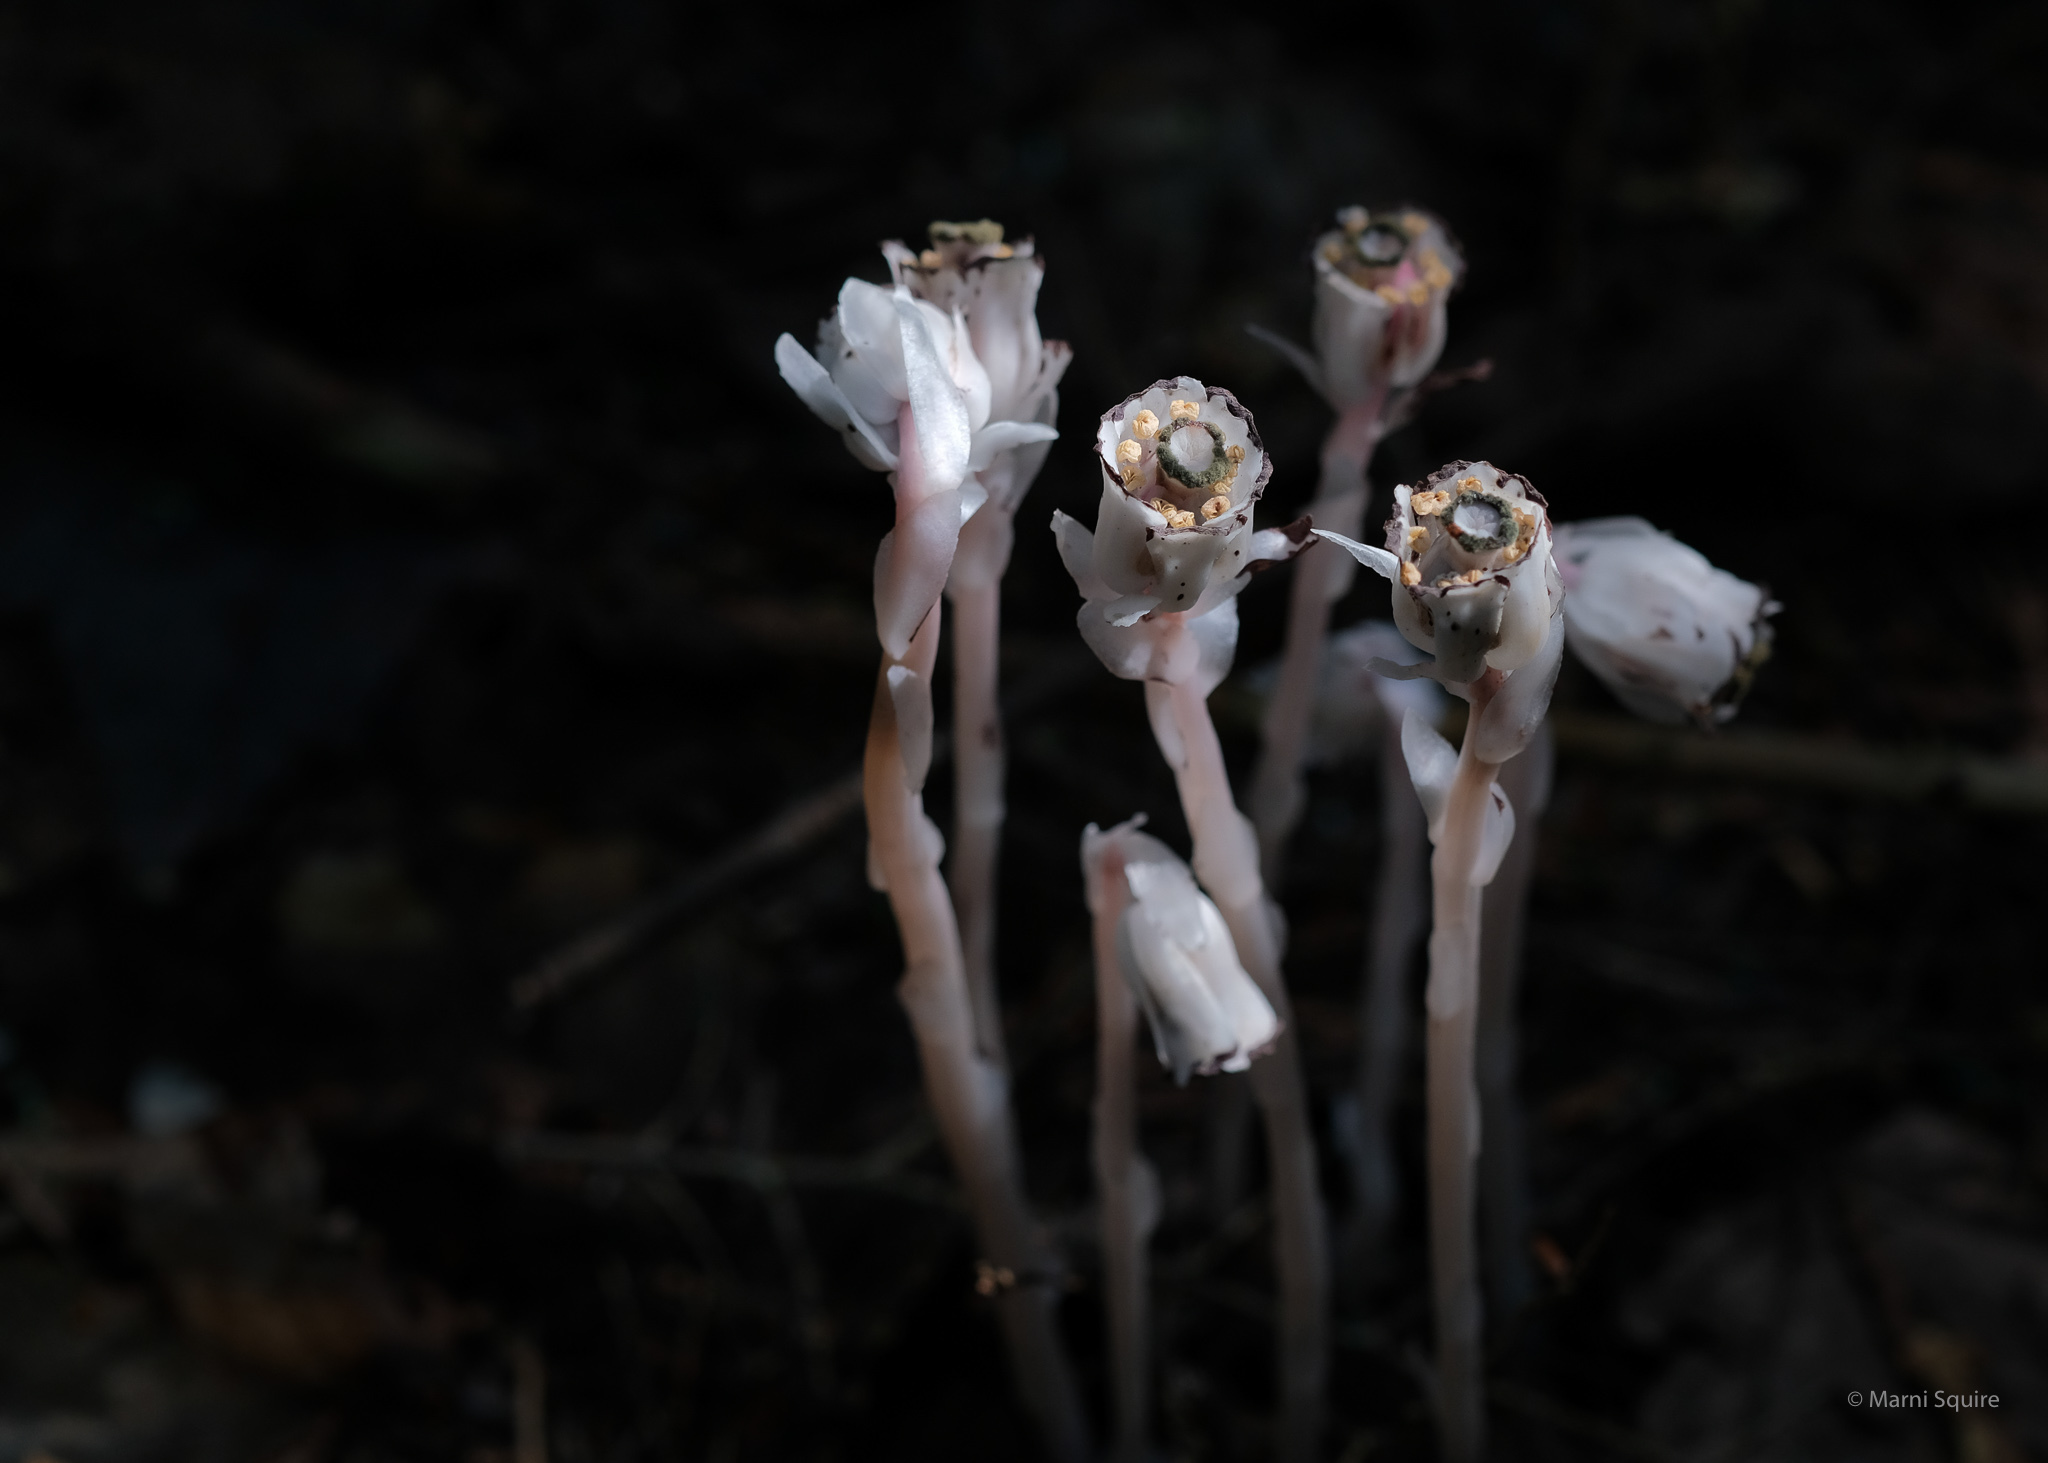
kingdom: Plantae
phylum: Tracheophyta
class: Magnoliopsida
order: Ericales
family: Ericaceae
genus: Monotropa
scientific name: Monotropa uniflora
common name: Convulsion root
